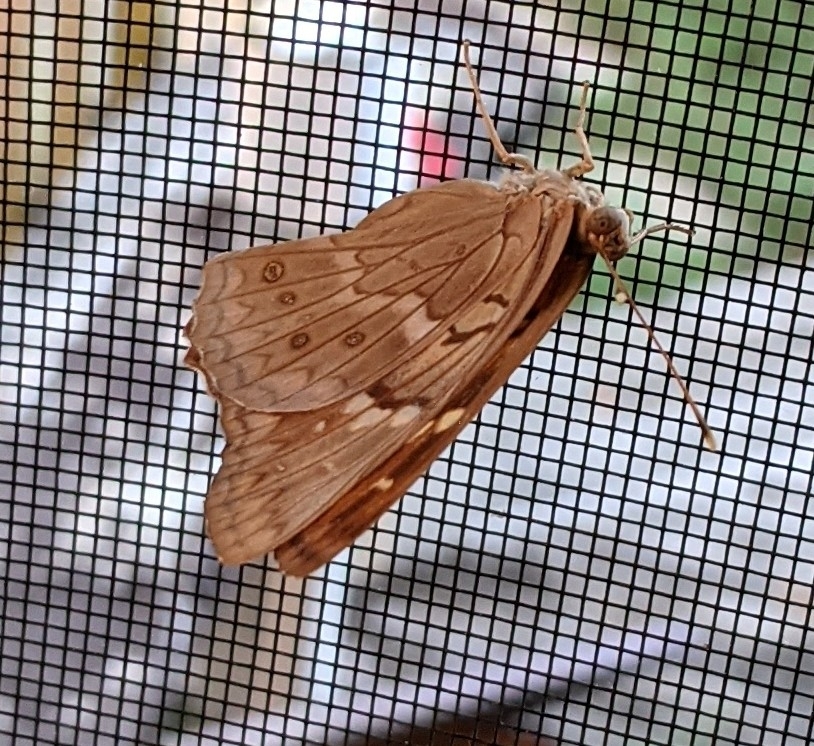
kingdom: Animalia
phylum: Arthropoda
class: Insecta
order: Lepidoptera
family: Nymphalidae
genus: Asterocampa
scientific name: Asterocampa clyton
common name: Tawny emperor
